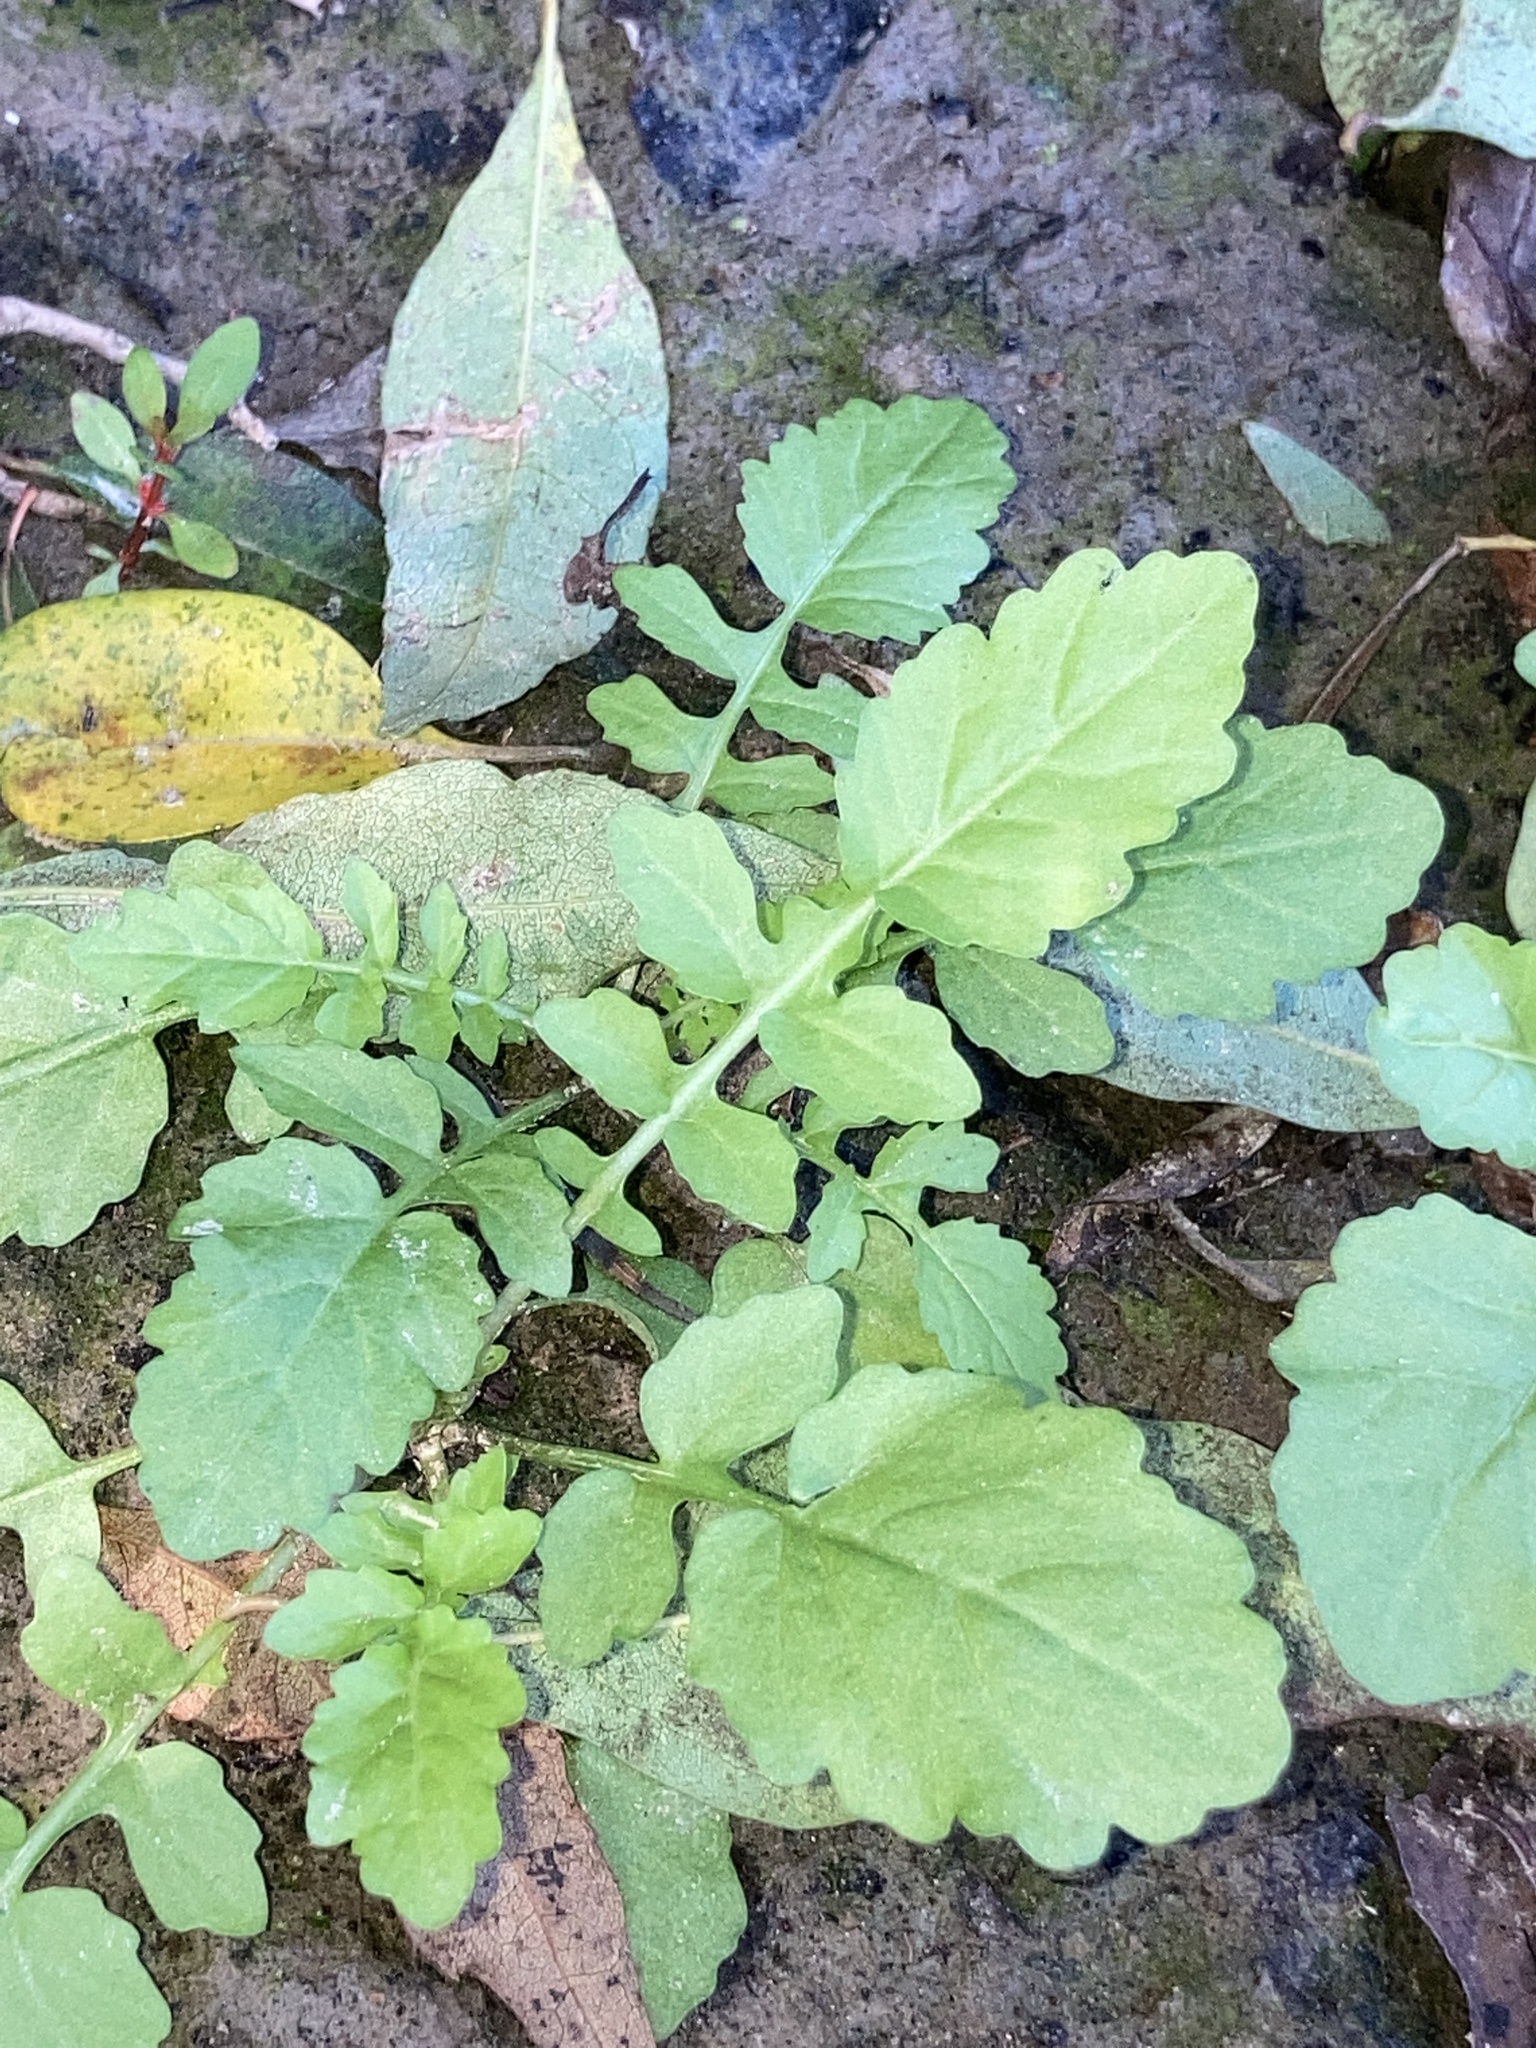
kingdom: Plantae
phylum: Tracheophyta
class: Magnoliopsida
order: Brassicales
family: Brassicaceae
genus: Rorippa
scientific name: Rorippa sessiliflora
